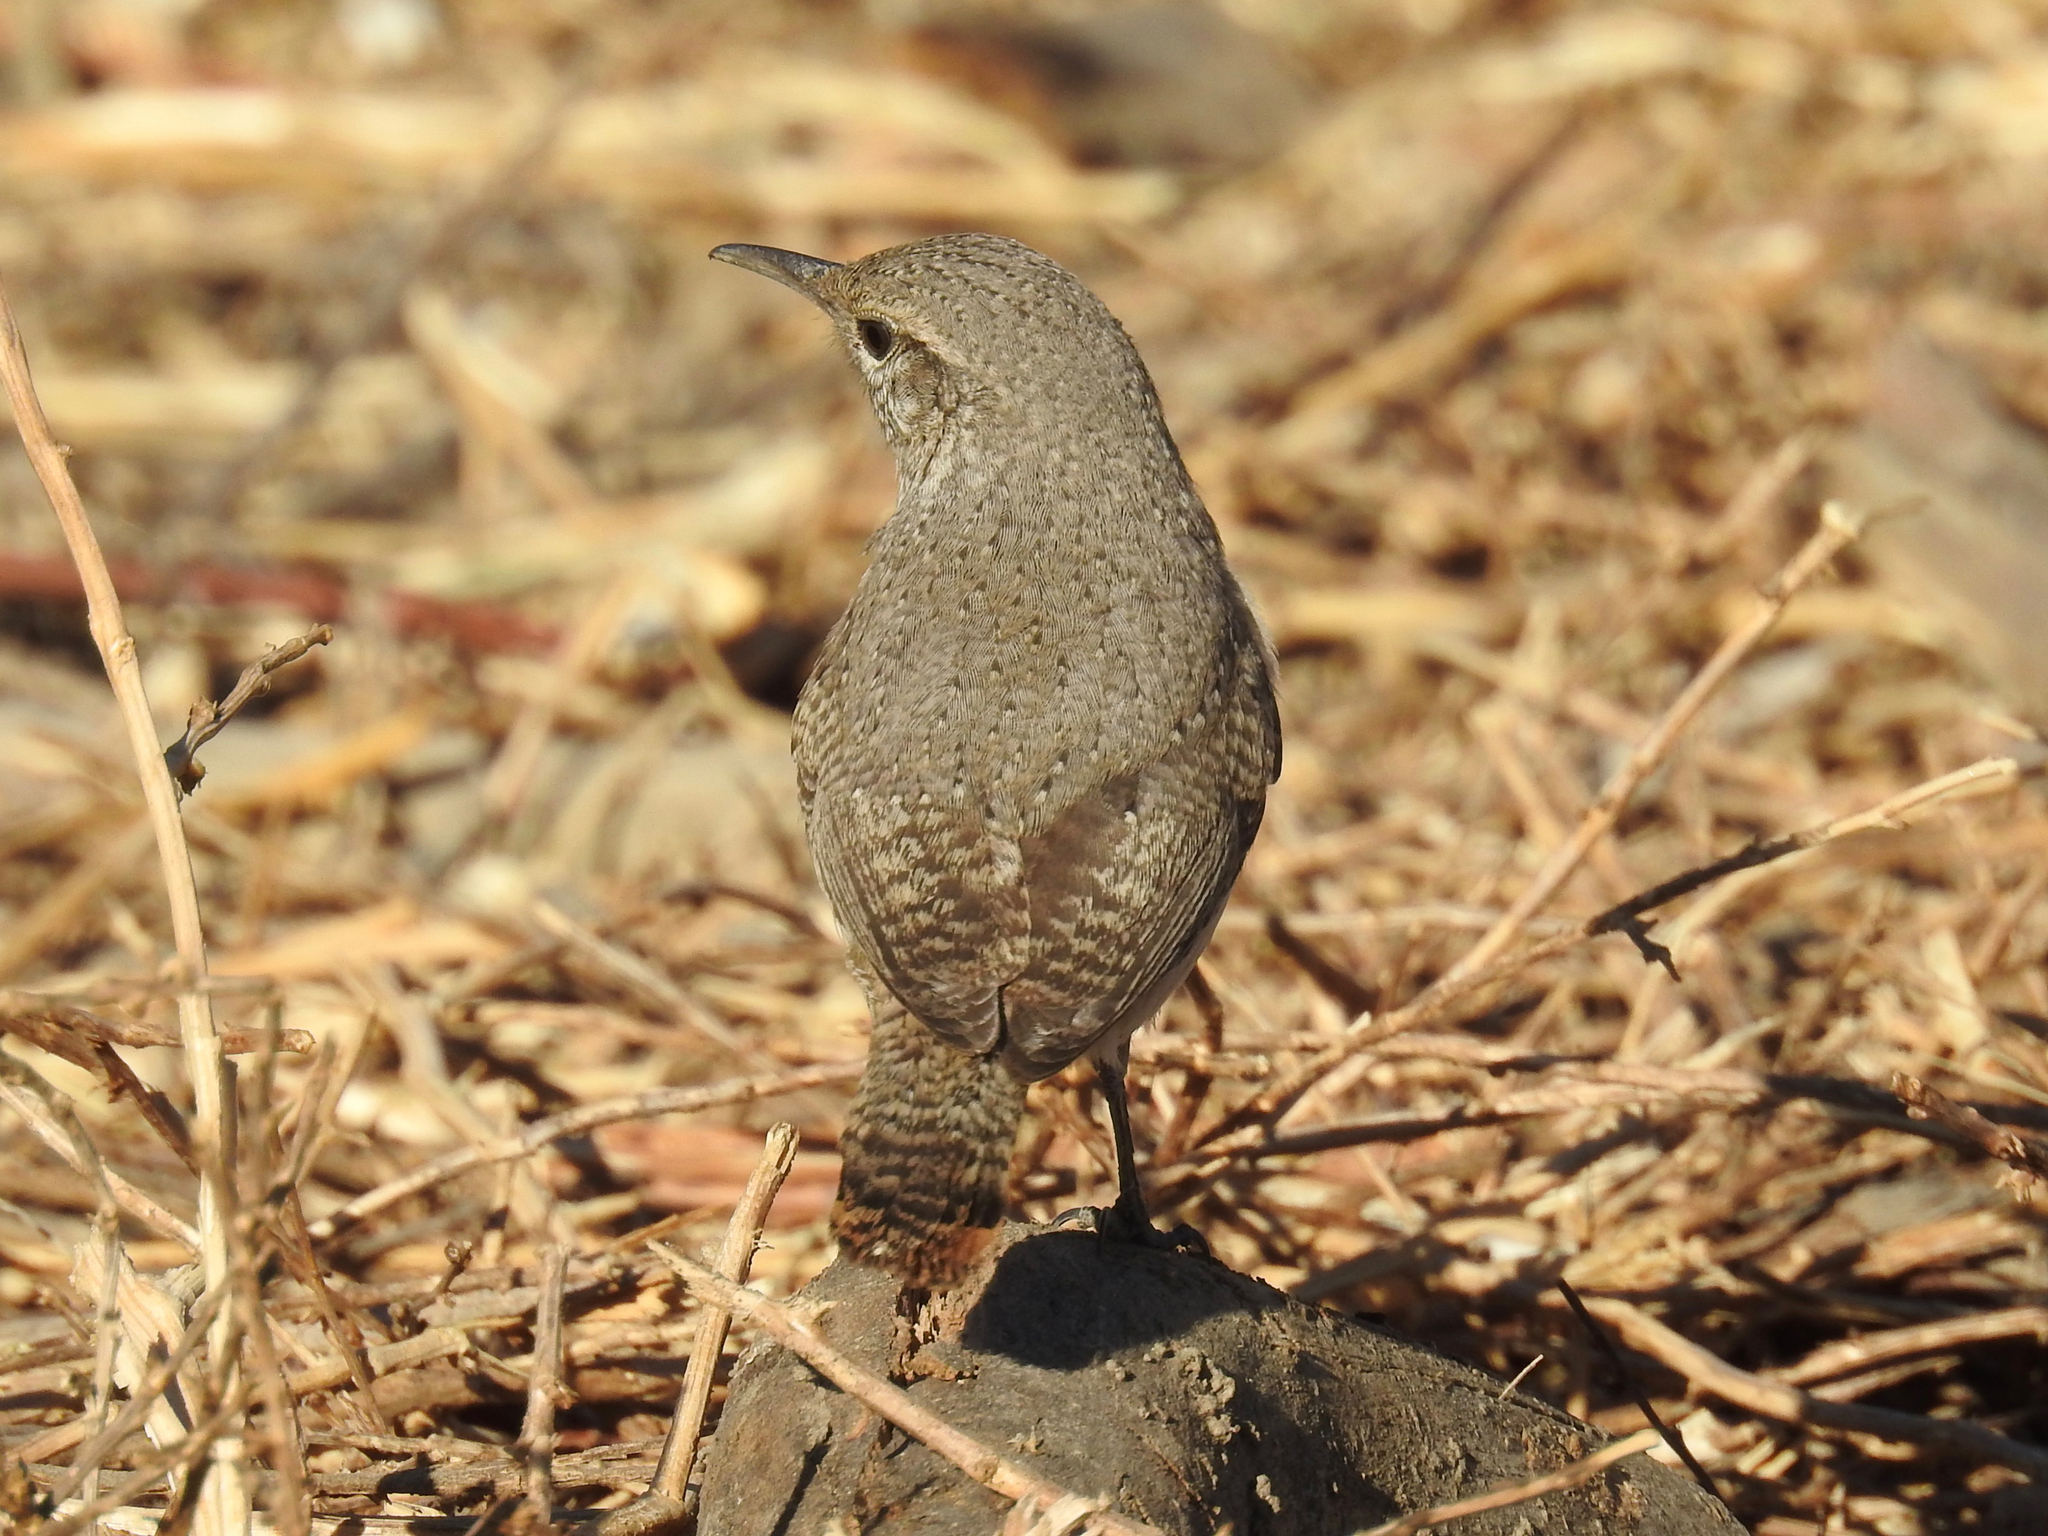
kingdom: Animalia
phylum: Chordata
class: Aves
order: Passeriformes
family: Troglodytidae
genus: Salpinctes
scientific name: Salpinctes obsoletus
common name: Rock wren
